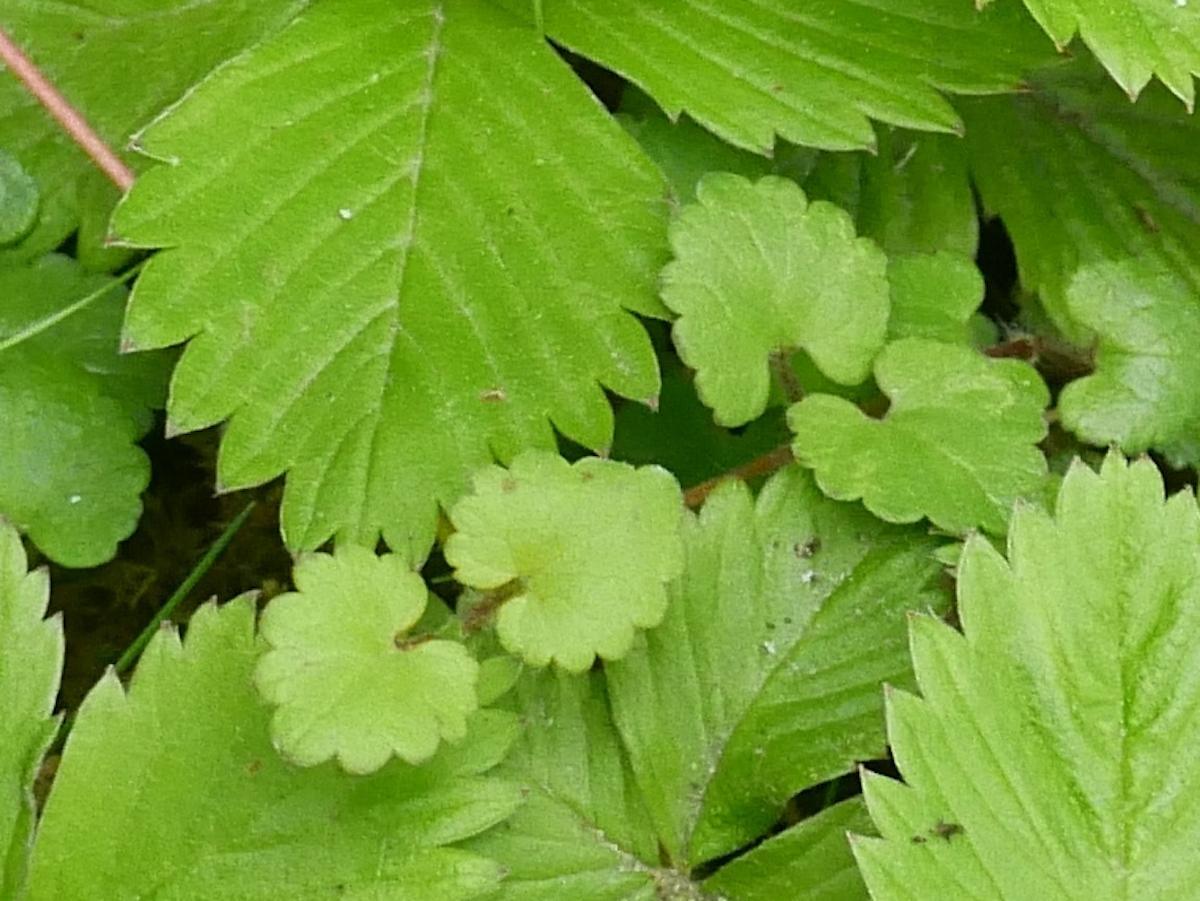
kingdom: Plantae
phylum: Tracheophyta
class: Magnoliopsida
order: Lamiales
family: Lamiaceae
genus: Glechoma
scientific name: Glechoma hederacea
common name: Ground ivy
